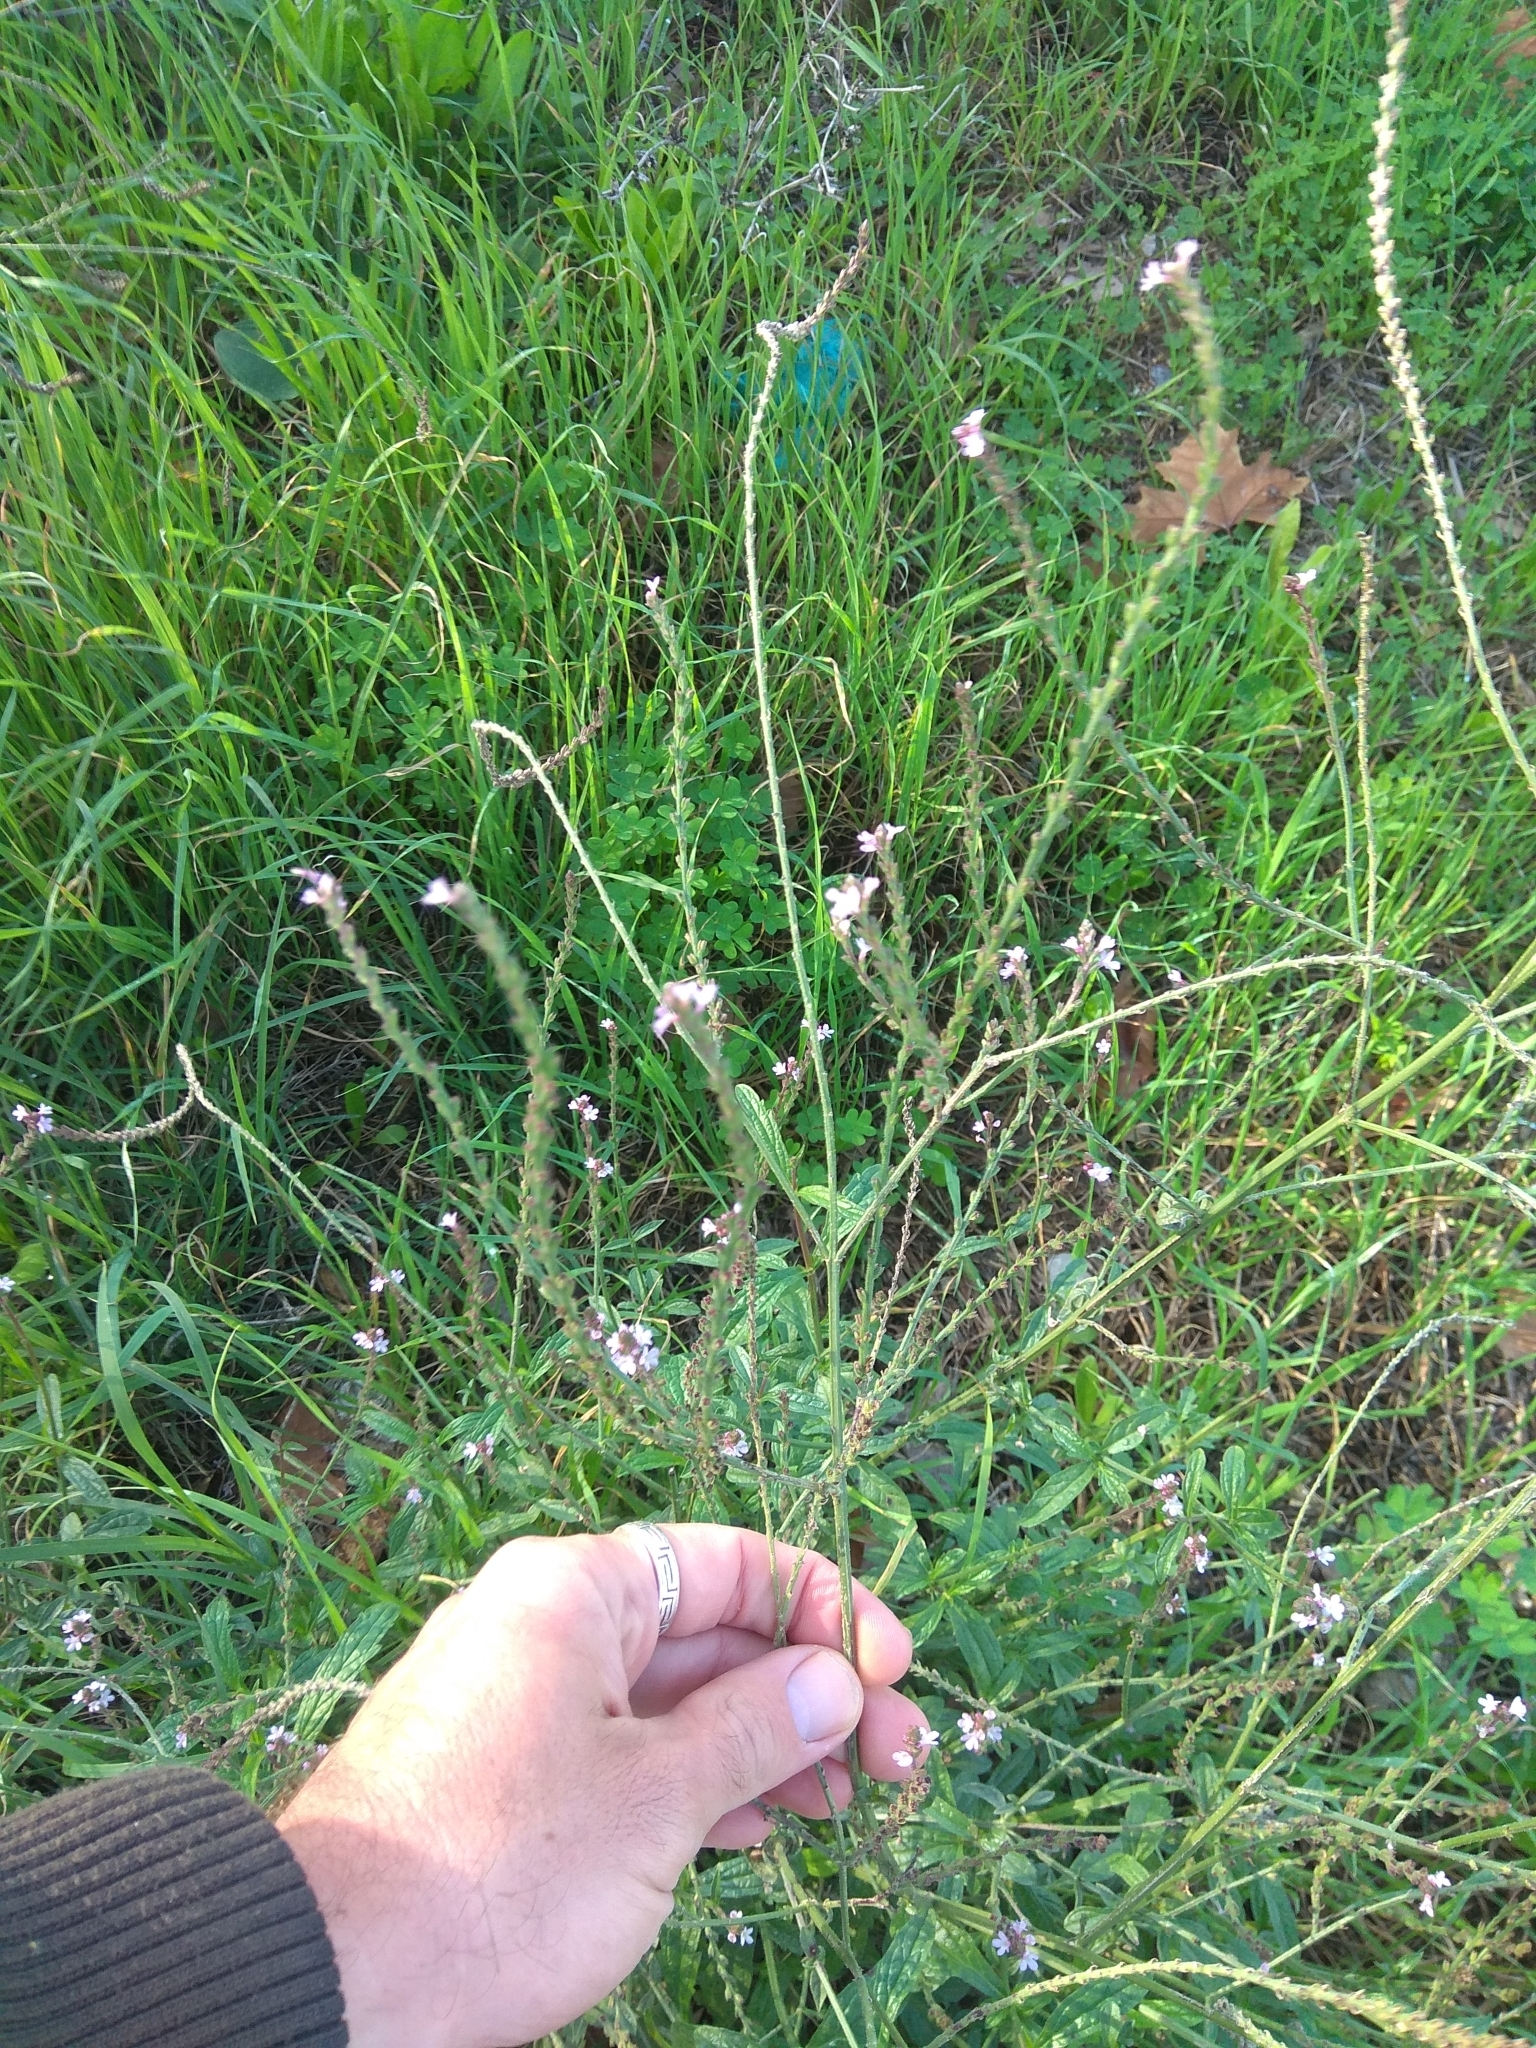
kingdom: Plantae
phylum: Tracheophyta
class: Magnoliopsida
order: Lamiales
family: Verbenaceae
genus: Verbena
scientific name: Verbena officinalis
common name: Vervain
